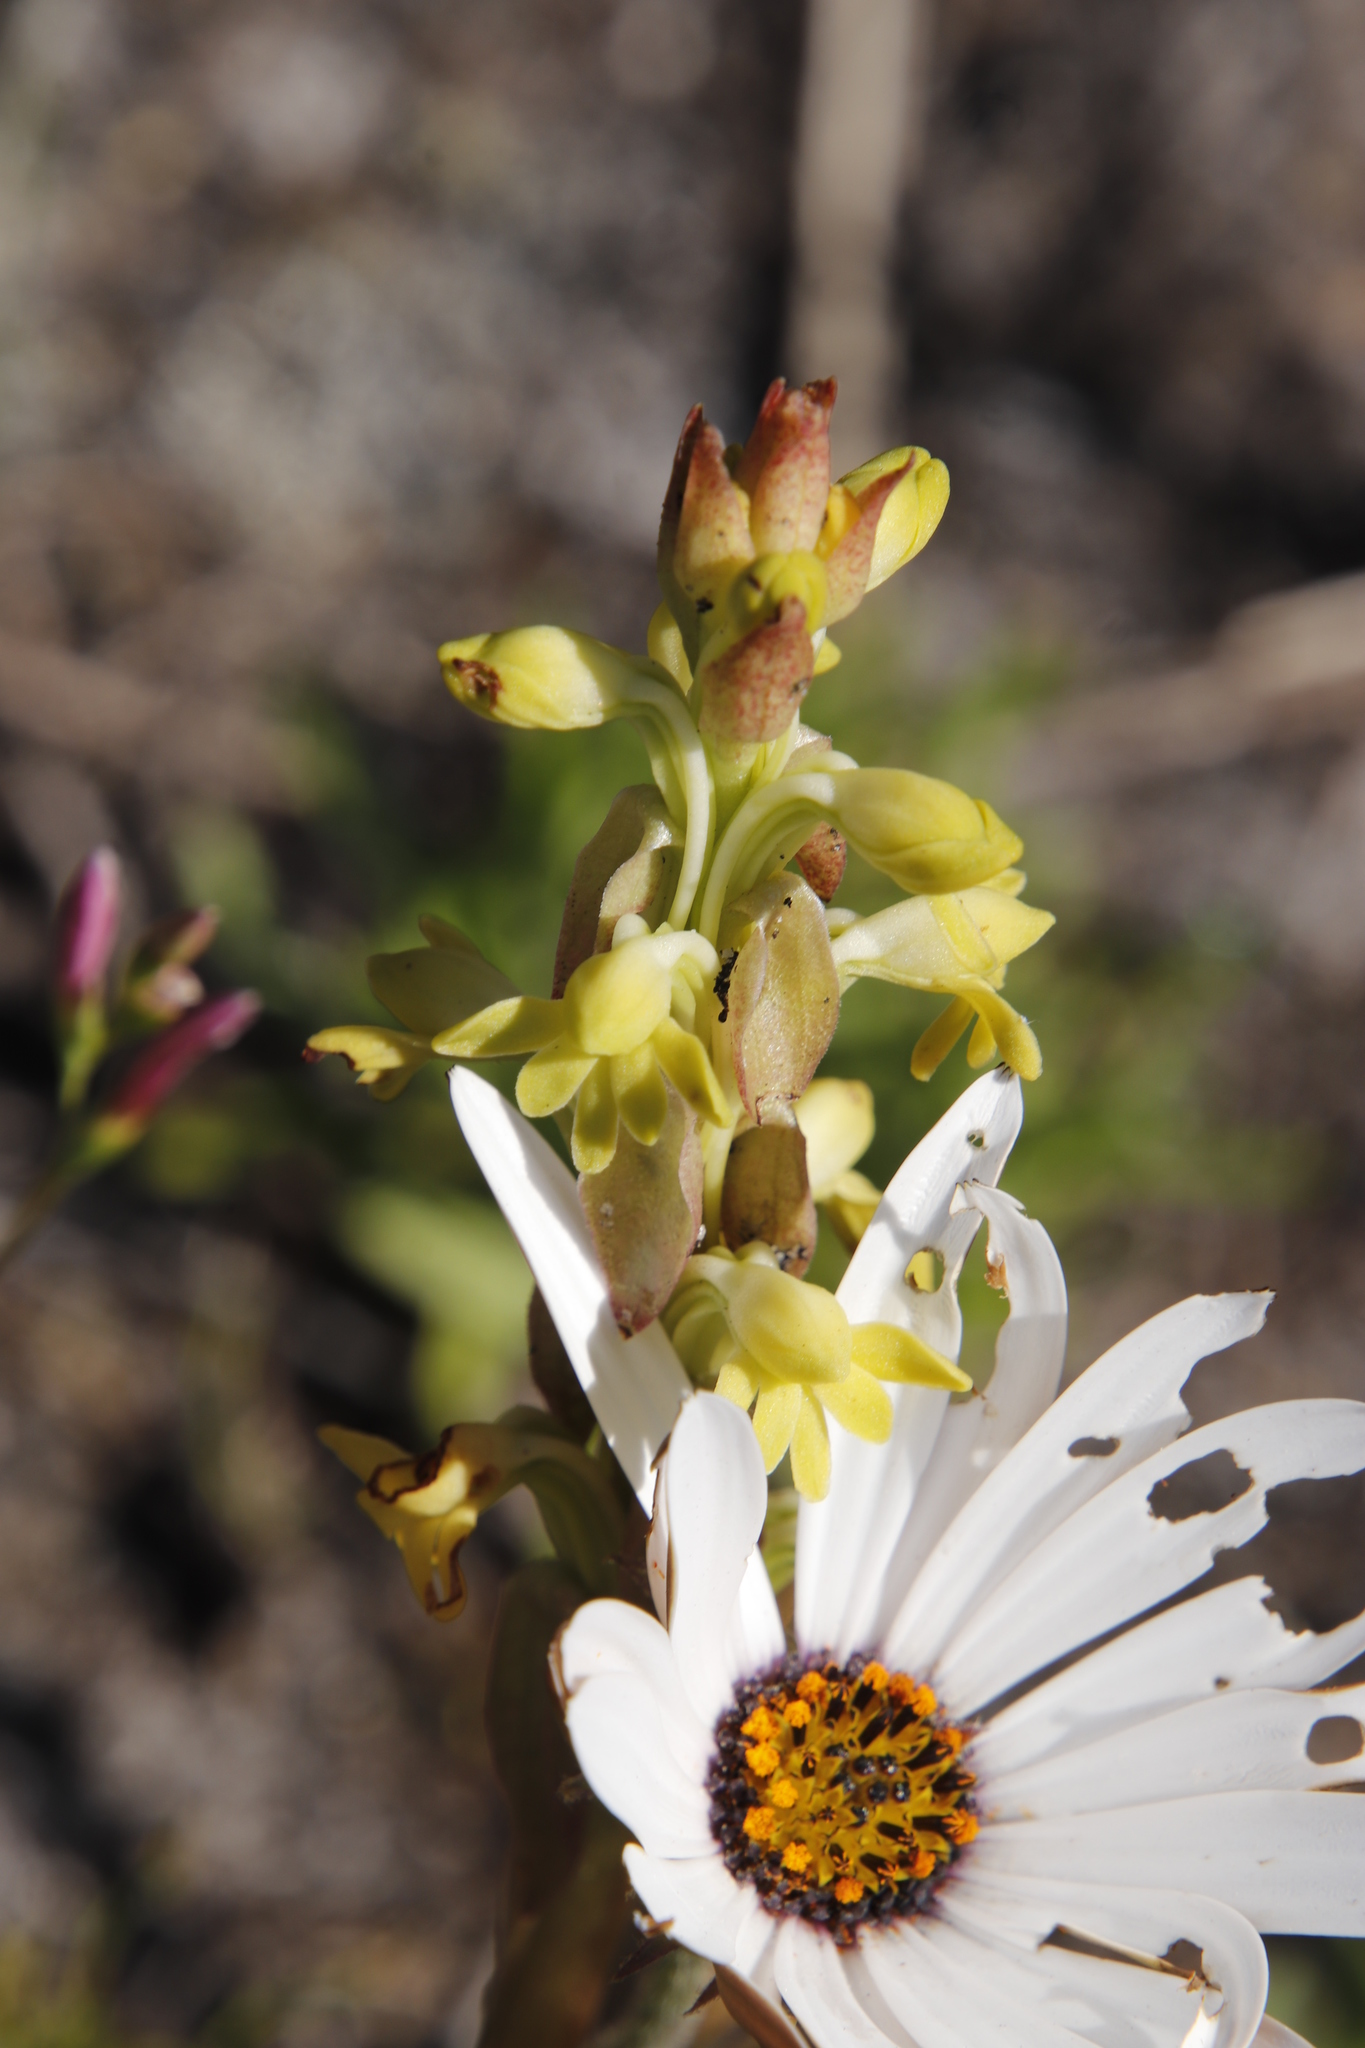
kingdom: Plantae
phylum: Tracheophyta
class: Liliopsida
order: Asparagales
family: Orchidaceae
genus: Satyrium
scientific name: Satyrium bicorne
